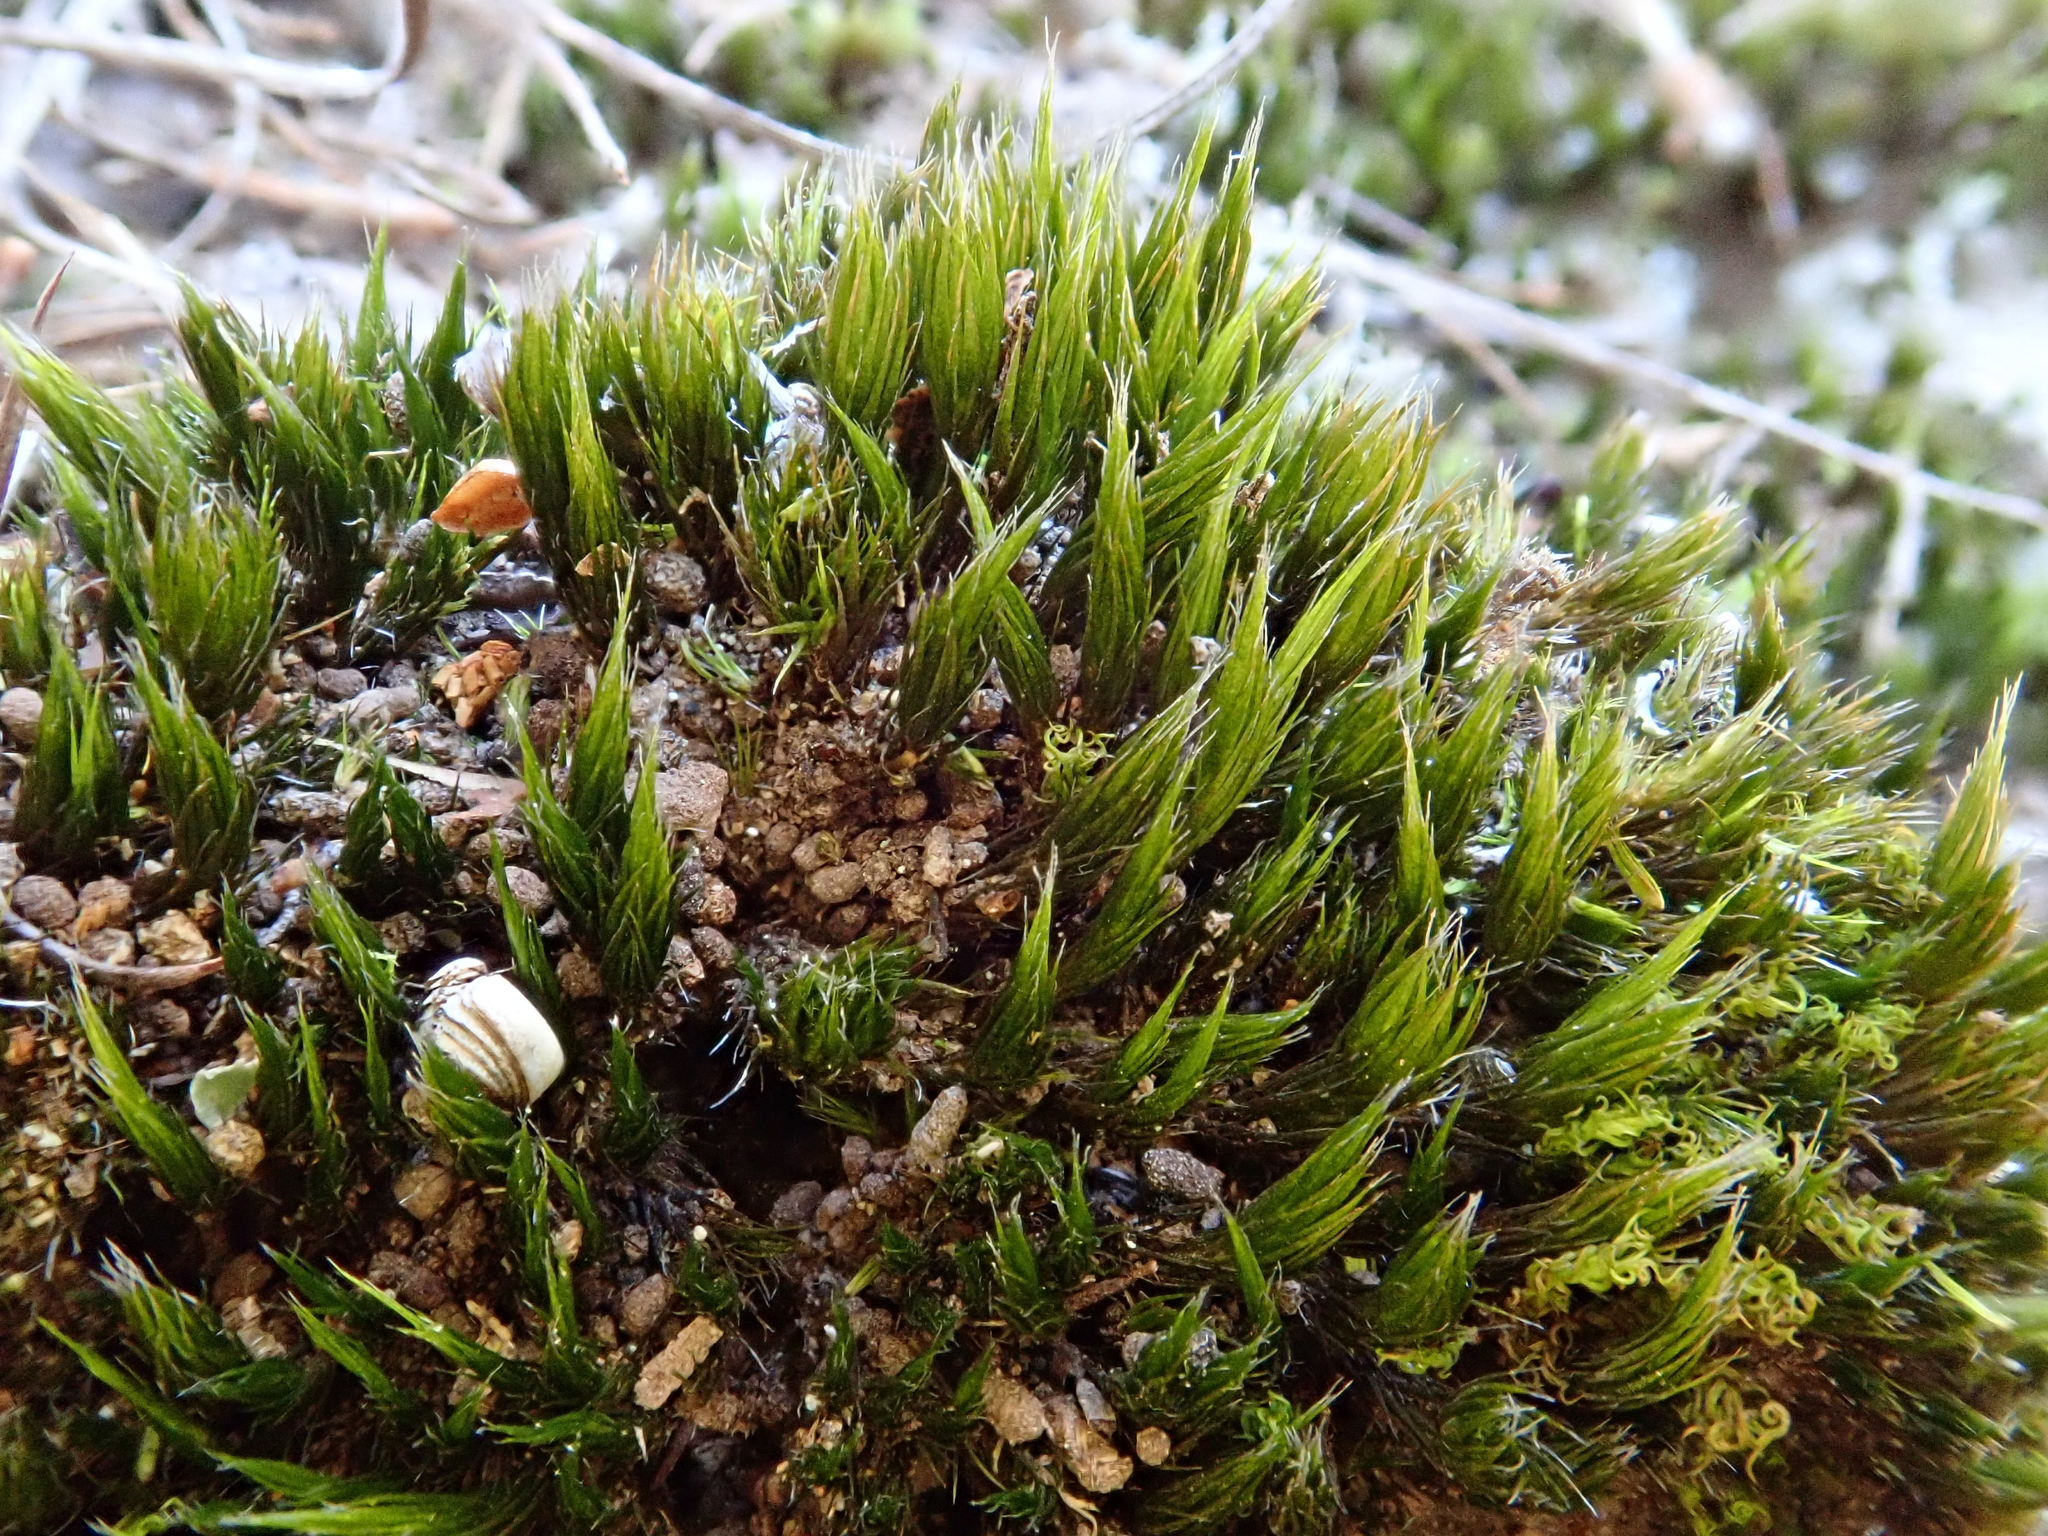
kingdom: Plantae
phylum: Bryophyta
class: Bryopsida
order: Dicranales
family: Leucobryaceae
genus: Campylopus
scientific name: Campylopus pilifer
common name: Campylopus moss
